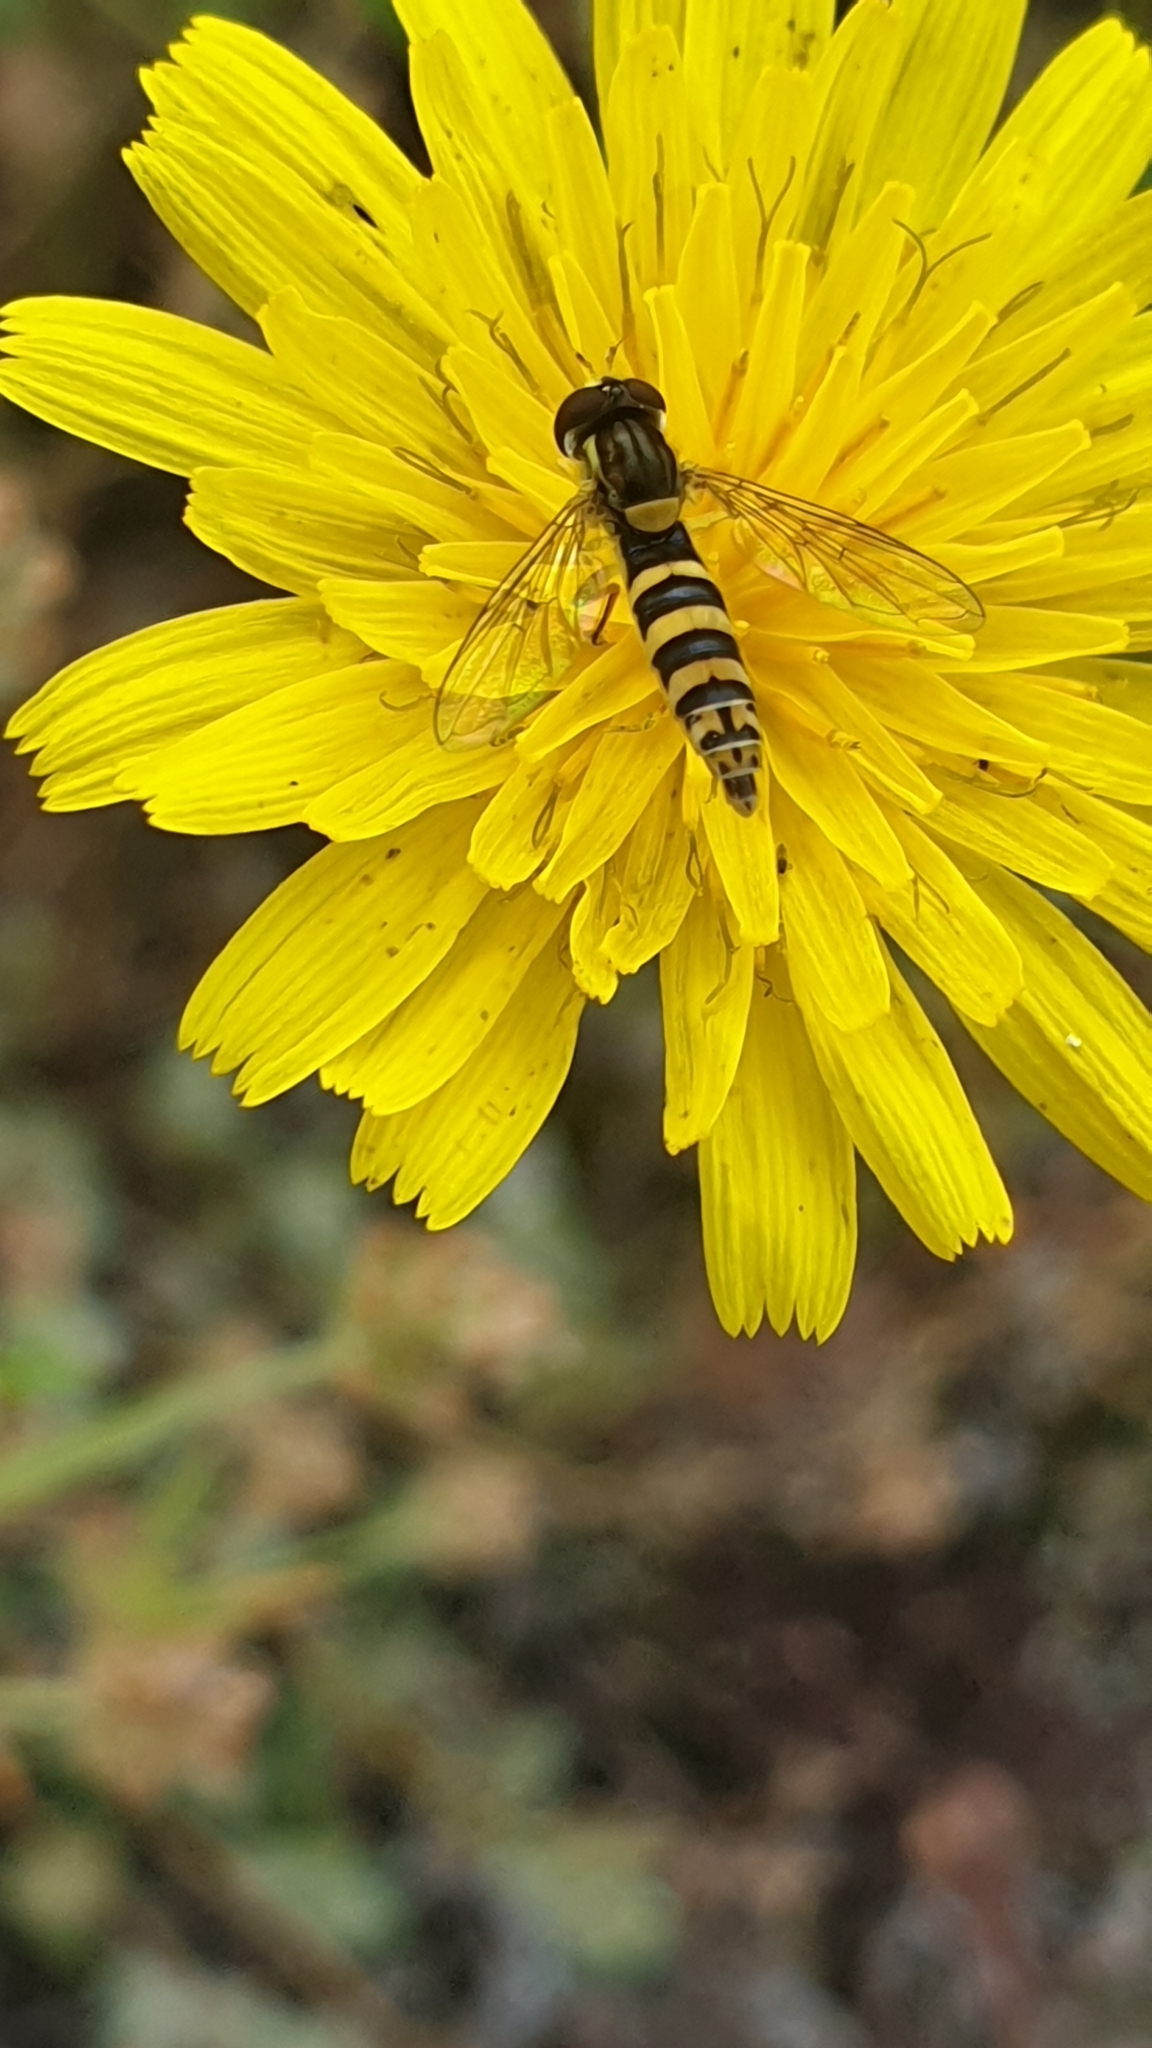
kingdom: Animalia
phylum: Arthropoda
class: Insecta
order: Diptera
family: Syrphidae
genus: Sphaerophoria
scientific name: Sphaerophoria scripta
